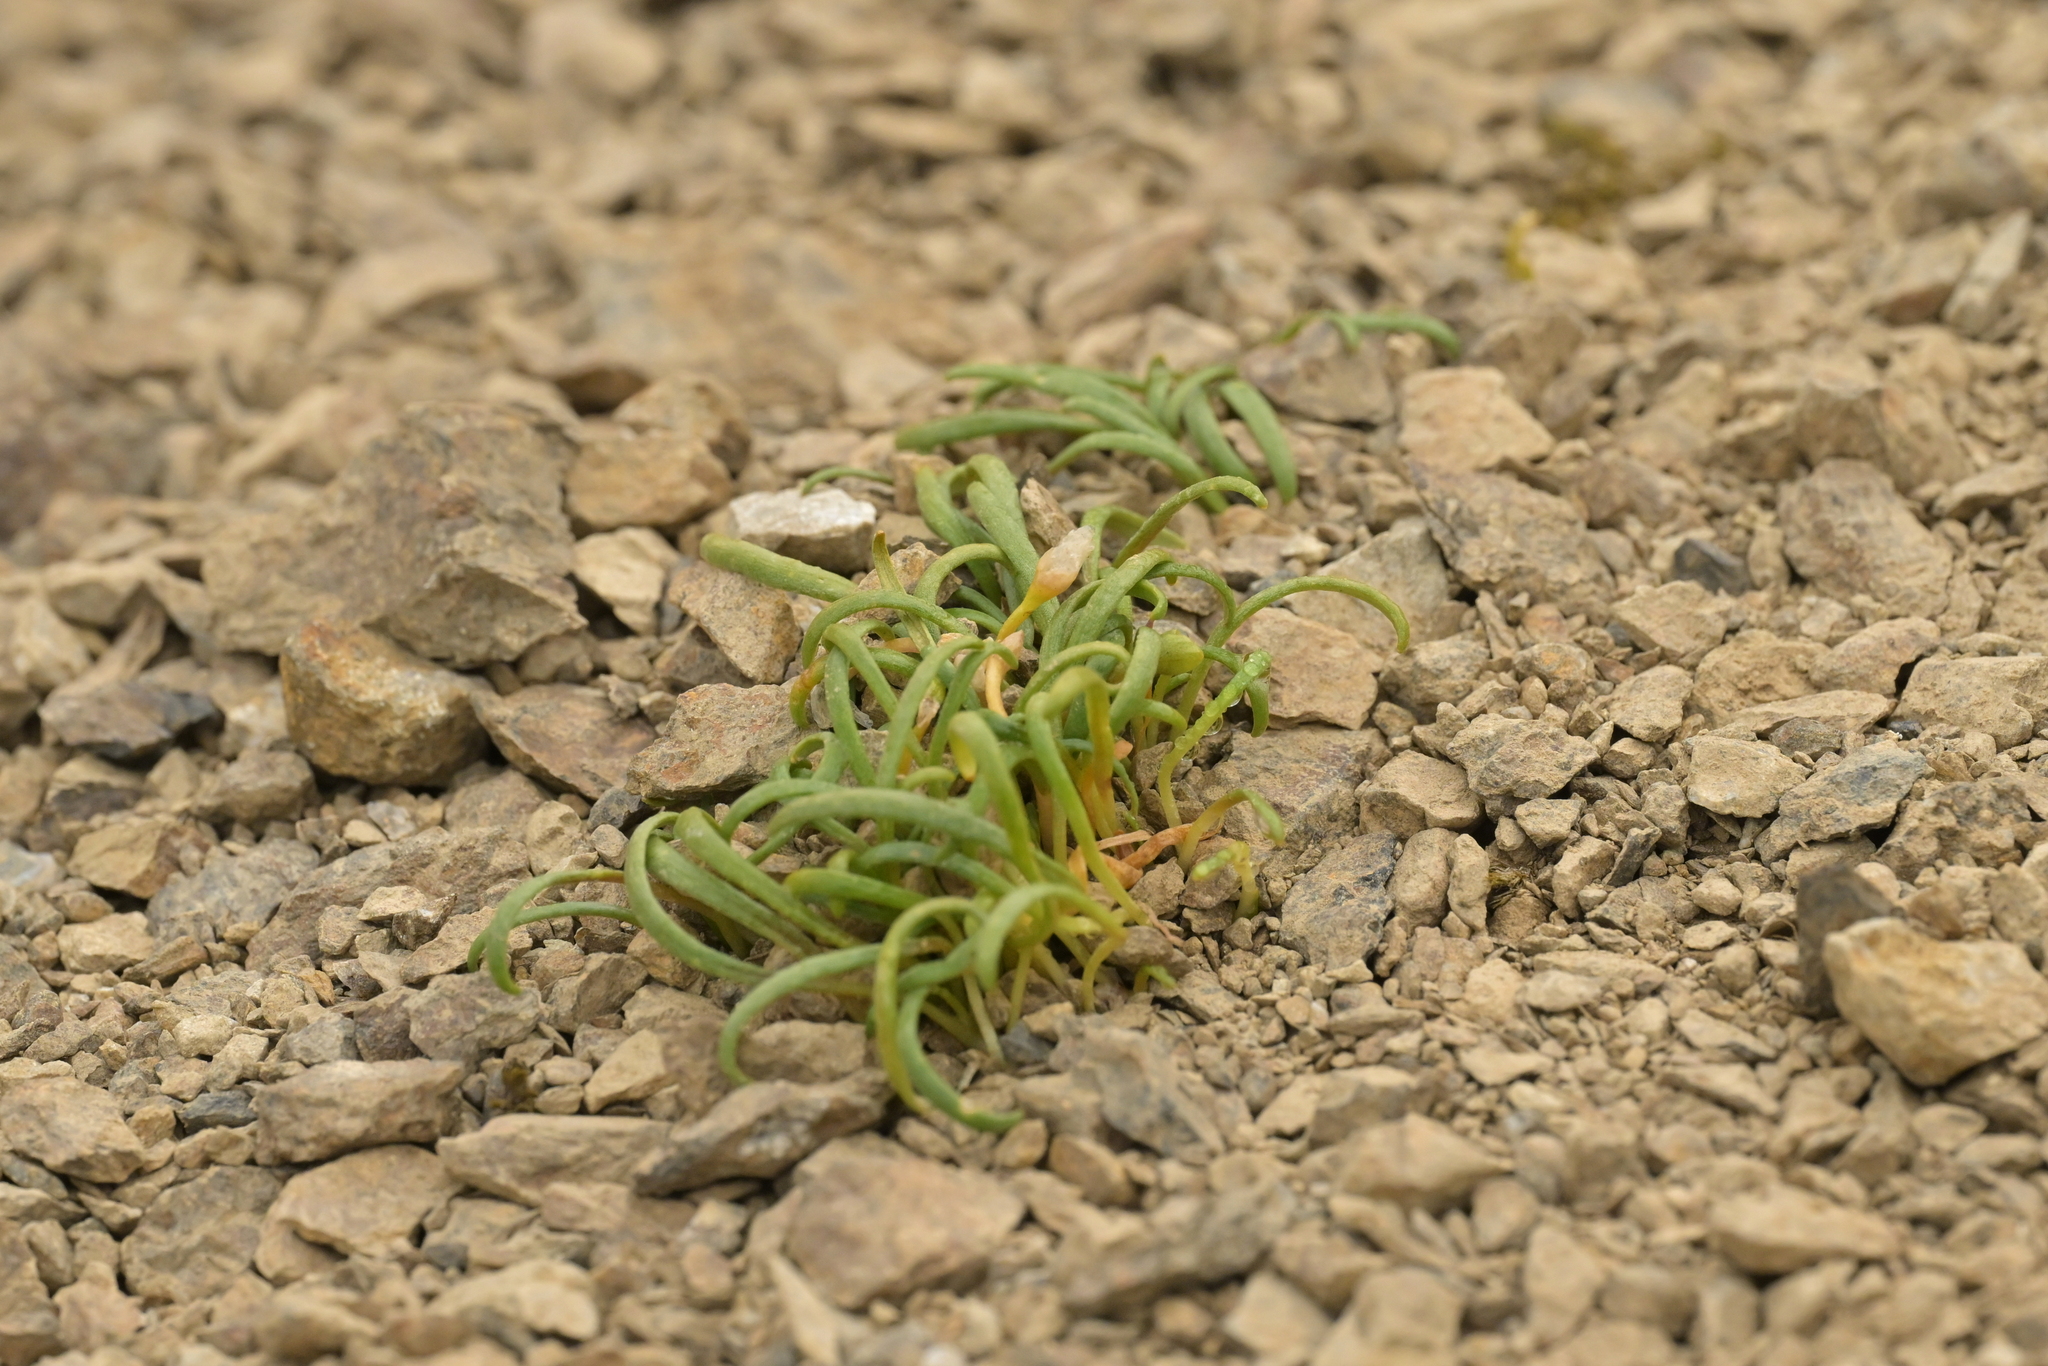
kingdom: Plantae
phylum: Tracheophyta
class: Magnoliopsida
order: Caryophyllales
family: Montiaceae
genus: Montia
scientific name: Montia calycina
